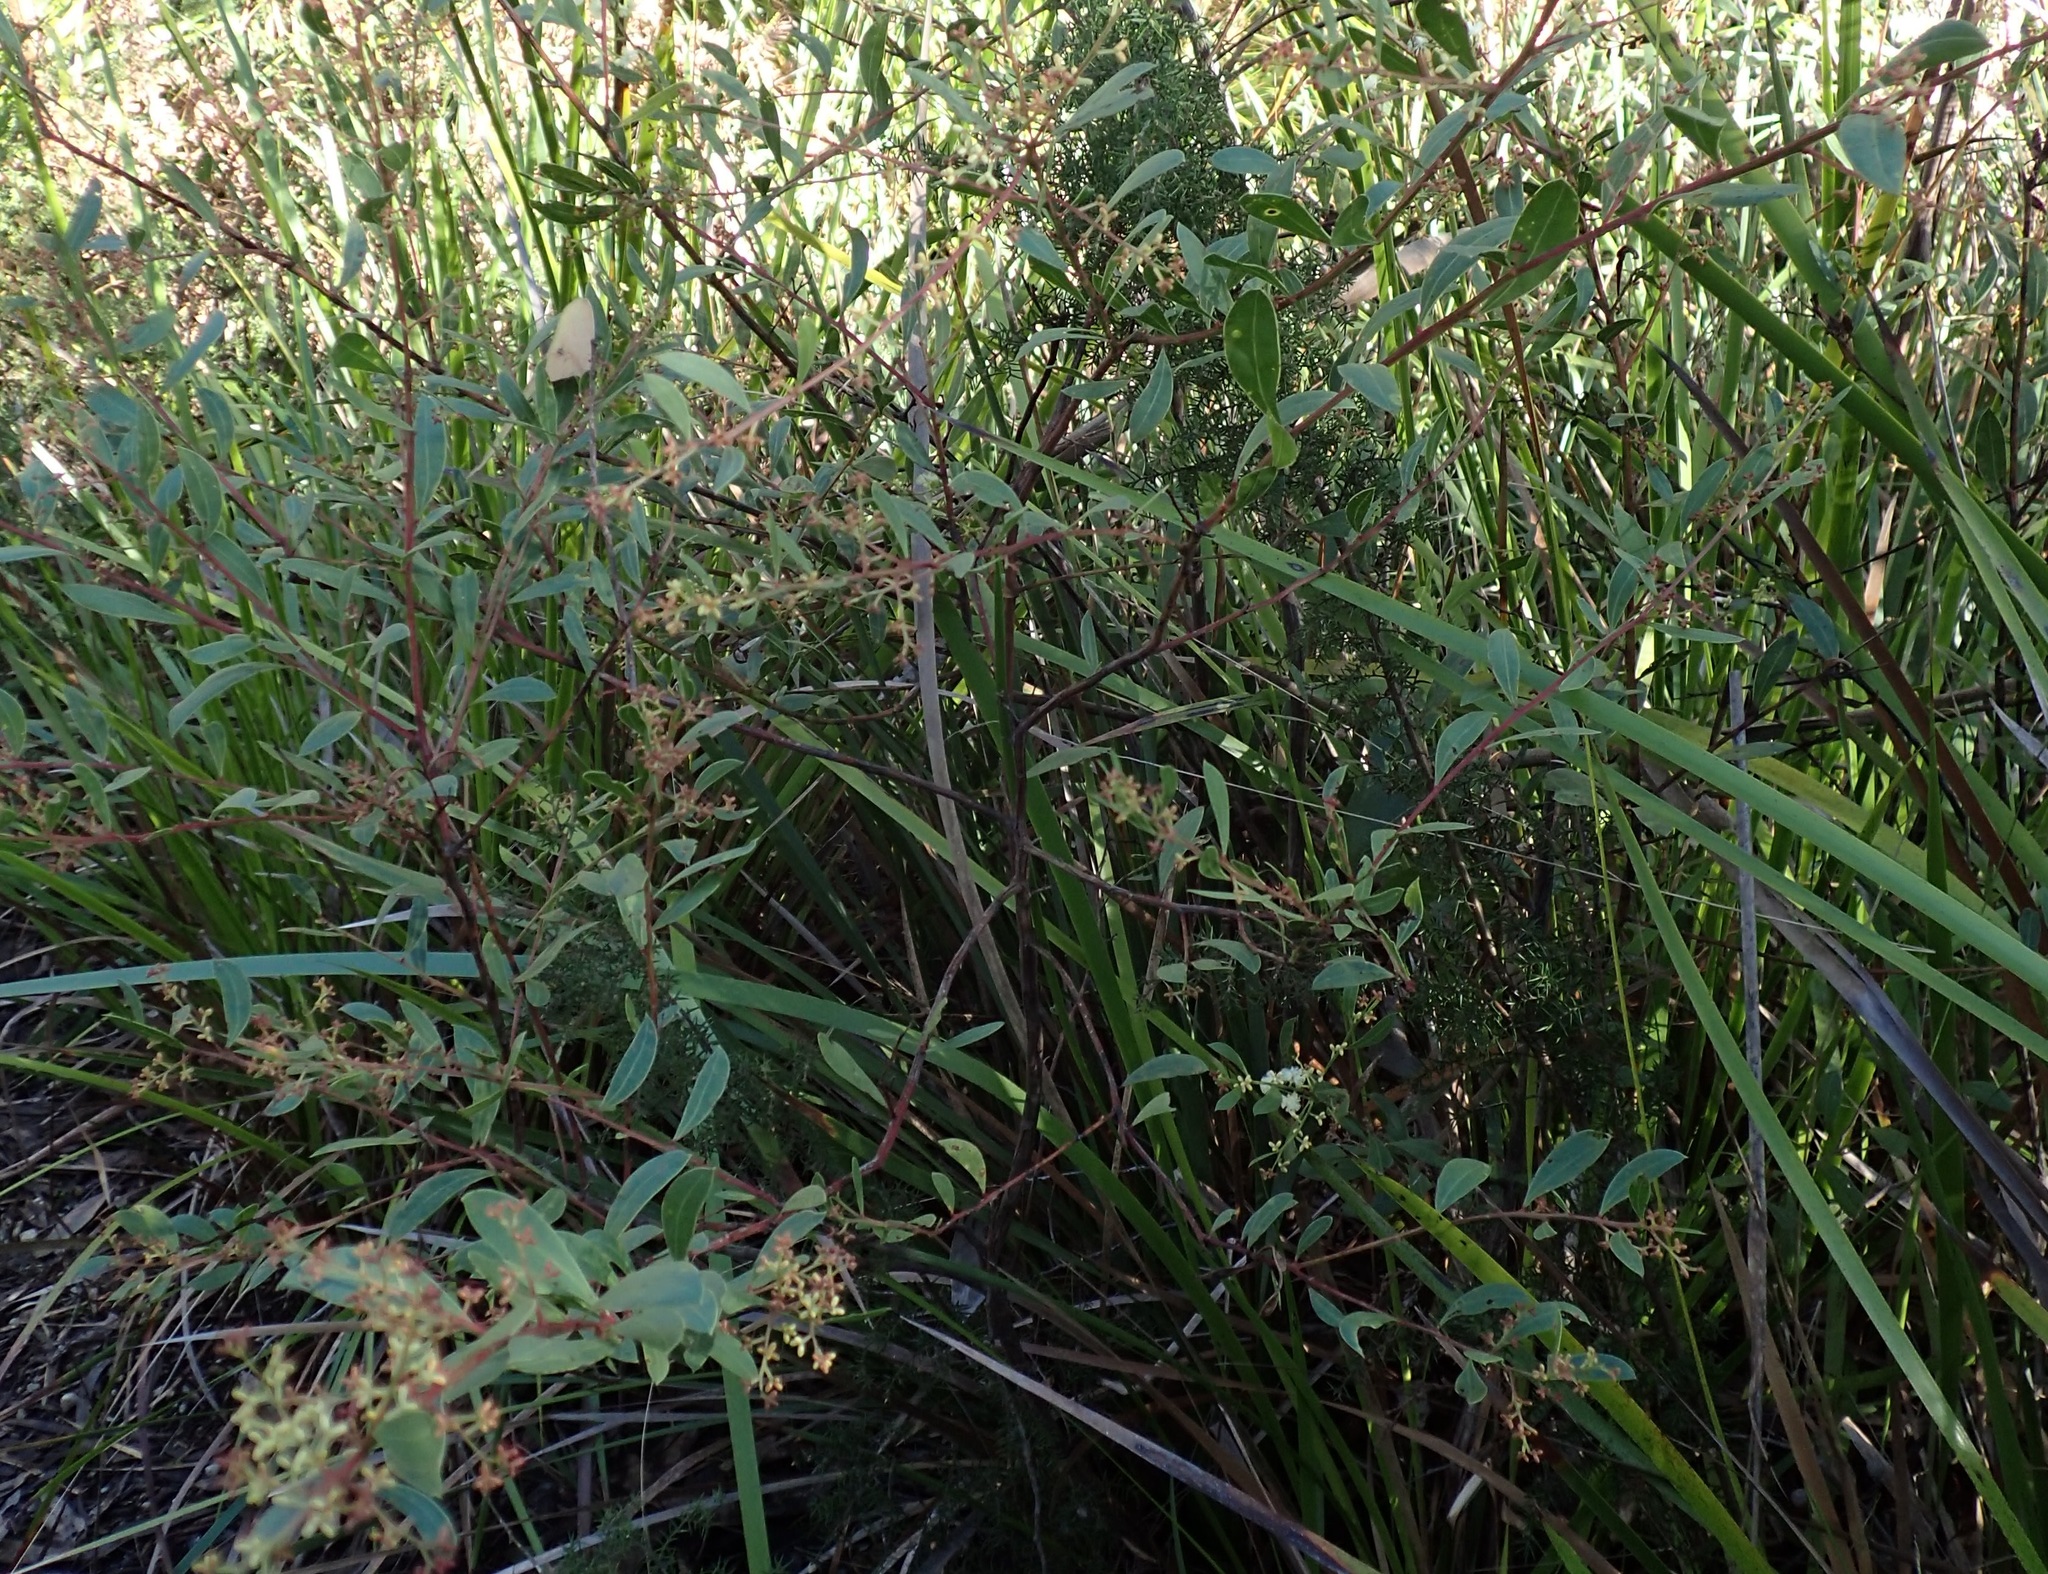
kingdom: Plantae
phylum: Tracheophyta
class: Magnoliopsida
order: Fabales
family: Fabaceae
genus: Acacia
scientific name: Acacia myrtifolia
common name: Myrtle wattle
